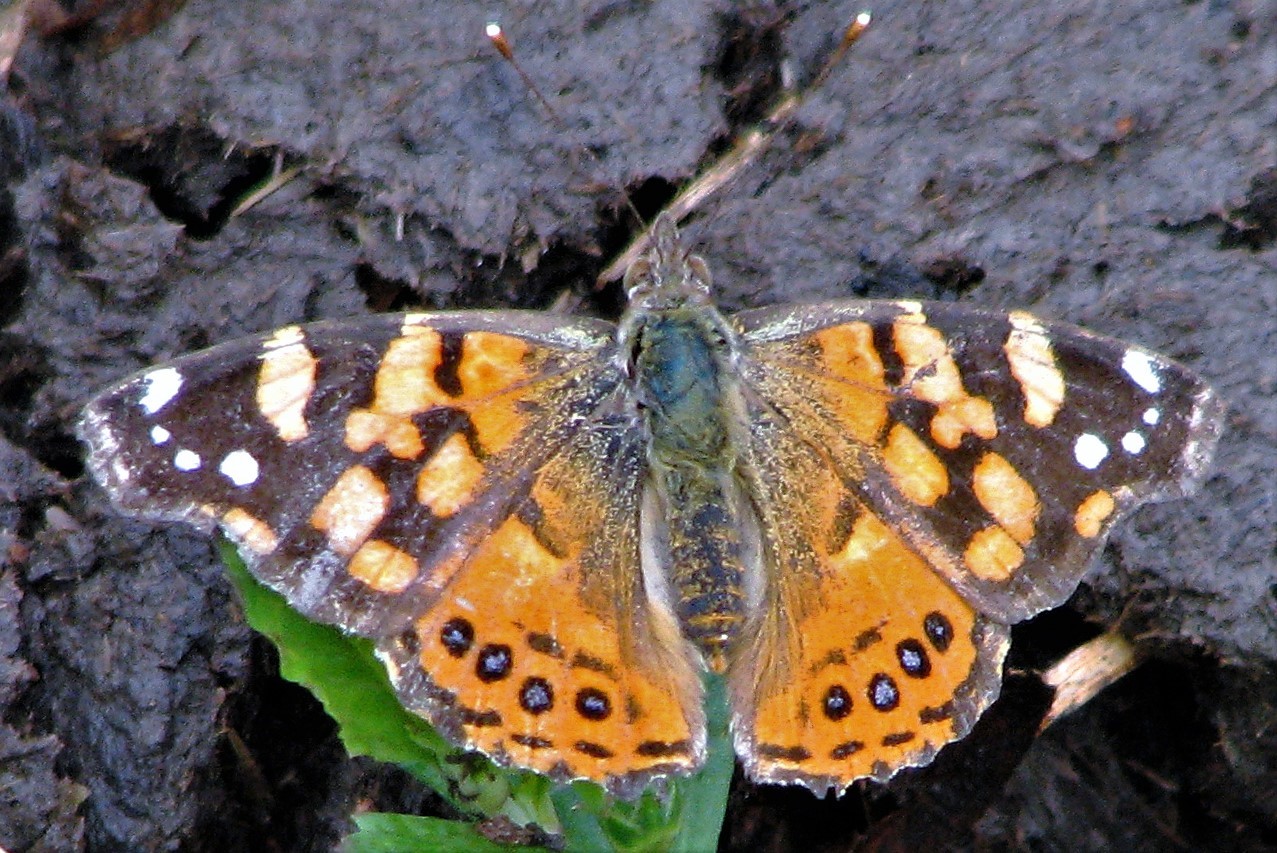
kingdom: Animalia
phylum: Arthropoda
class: Insecta
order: Lepidoptera
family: Nymphalidae
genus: Vanessa
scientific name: Vanessa carye
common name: Subtropical lady
